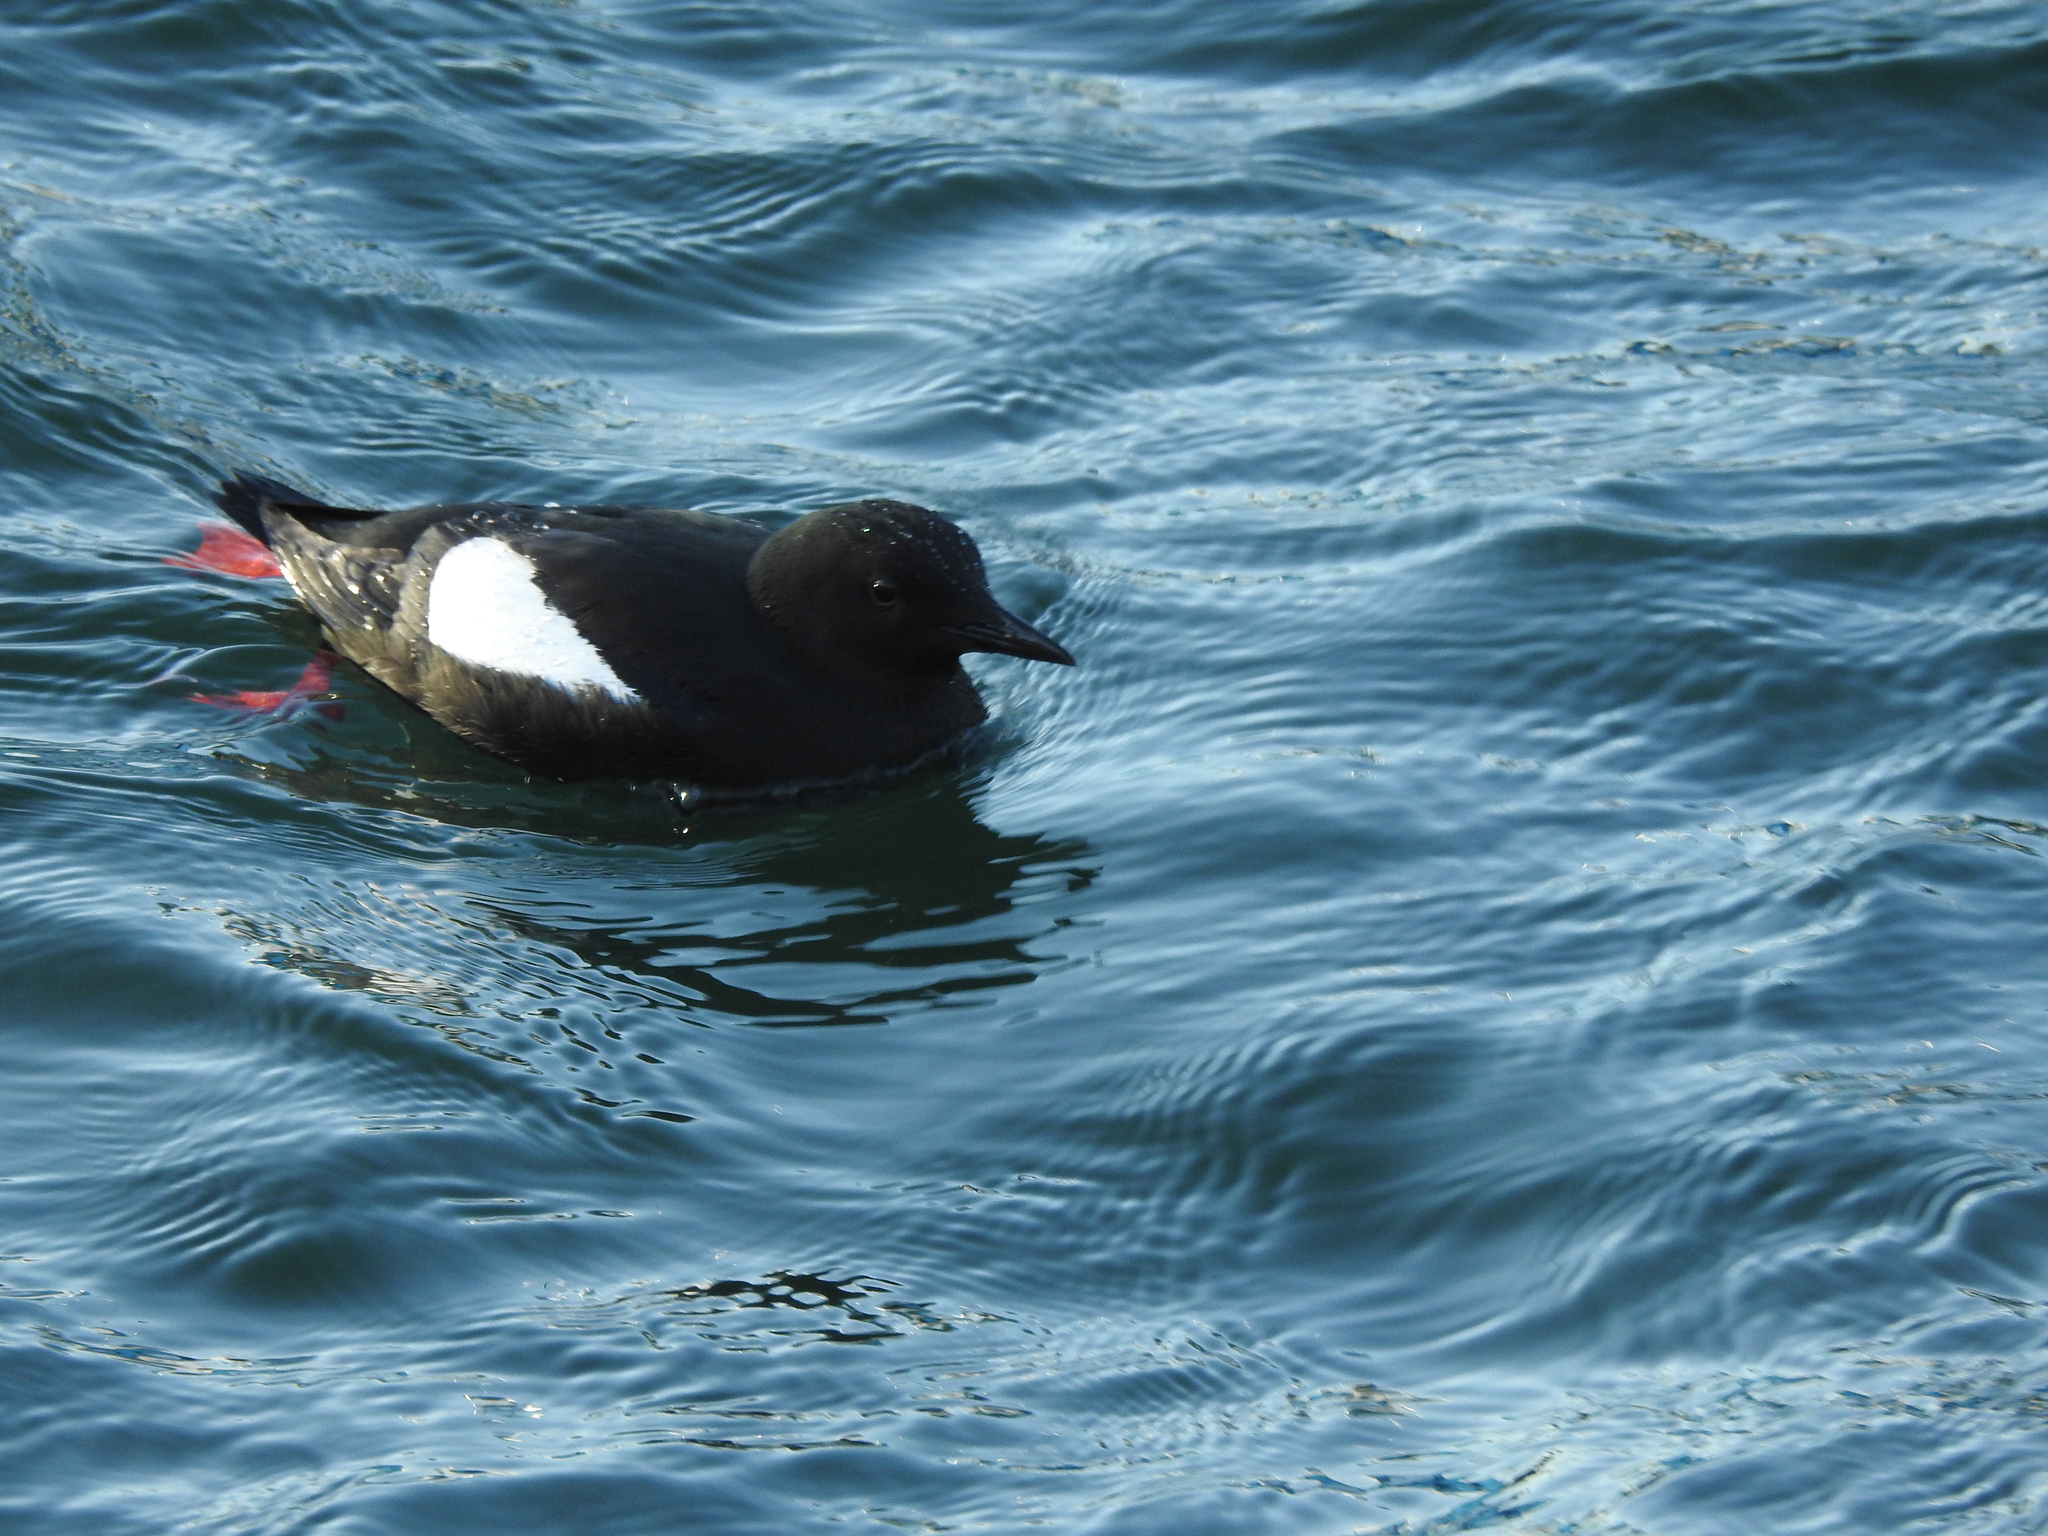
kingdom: Animalia
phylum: Chordata
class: Aves
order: Charadriiformes
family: Alcidae
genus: Cepphus
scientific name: Cepphus grylle
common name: Black guillemot
